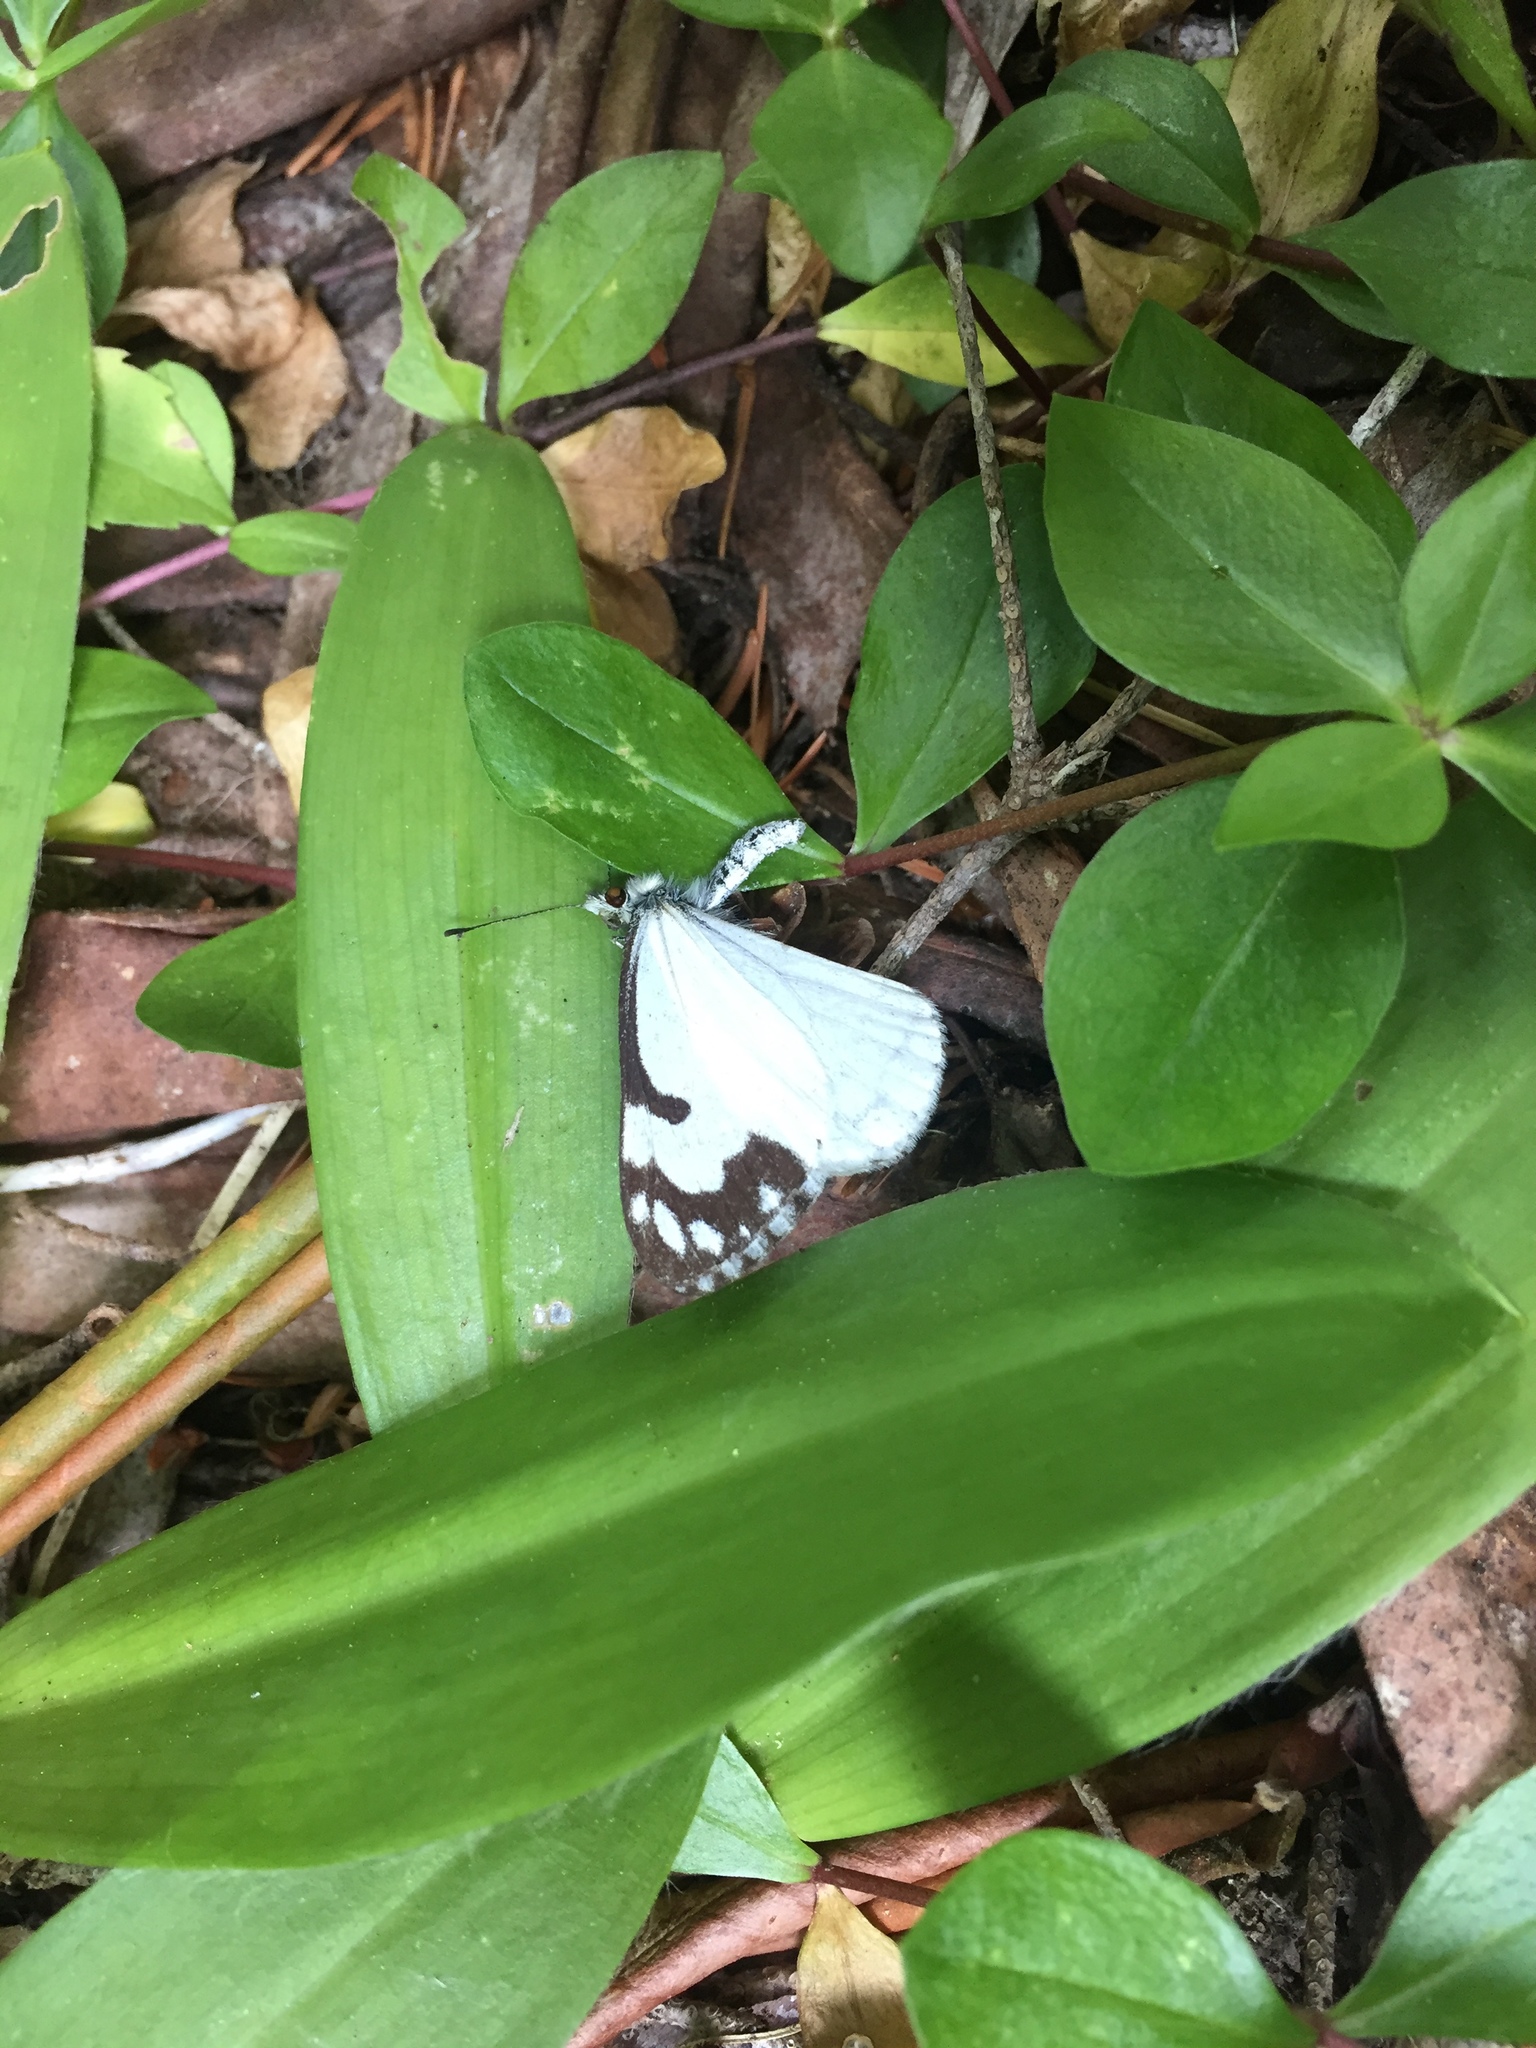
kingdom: Animalia
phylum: Arthropoda
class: Insecta
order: Lepidoptera
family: Pieridae
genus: Neophasia
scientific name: Neophasia menapia
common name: Pine white
